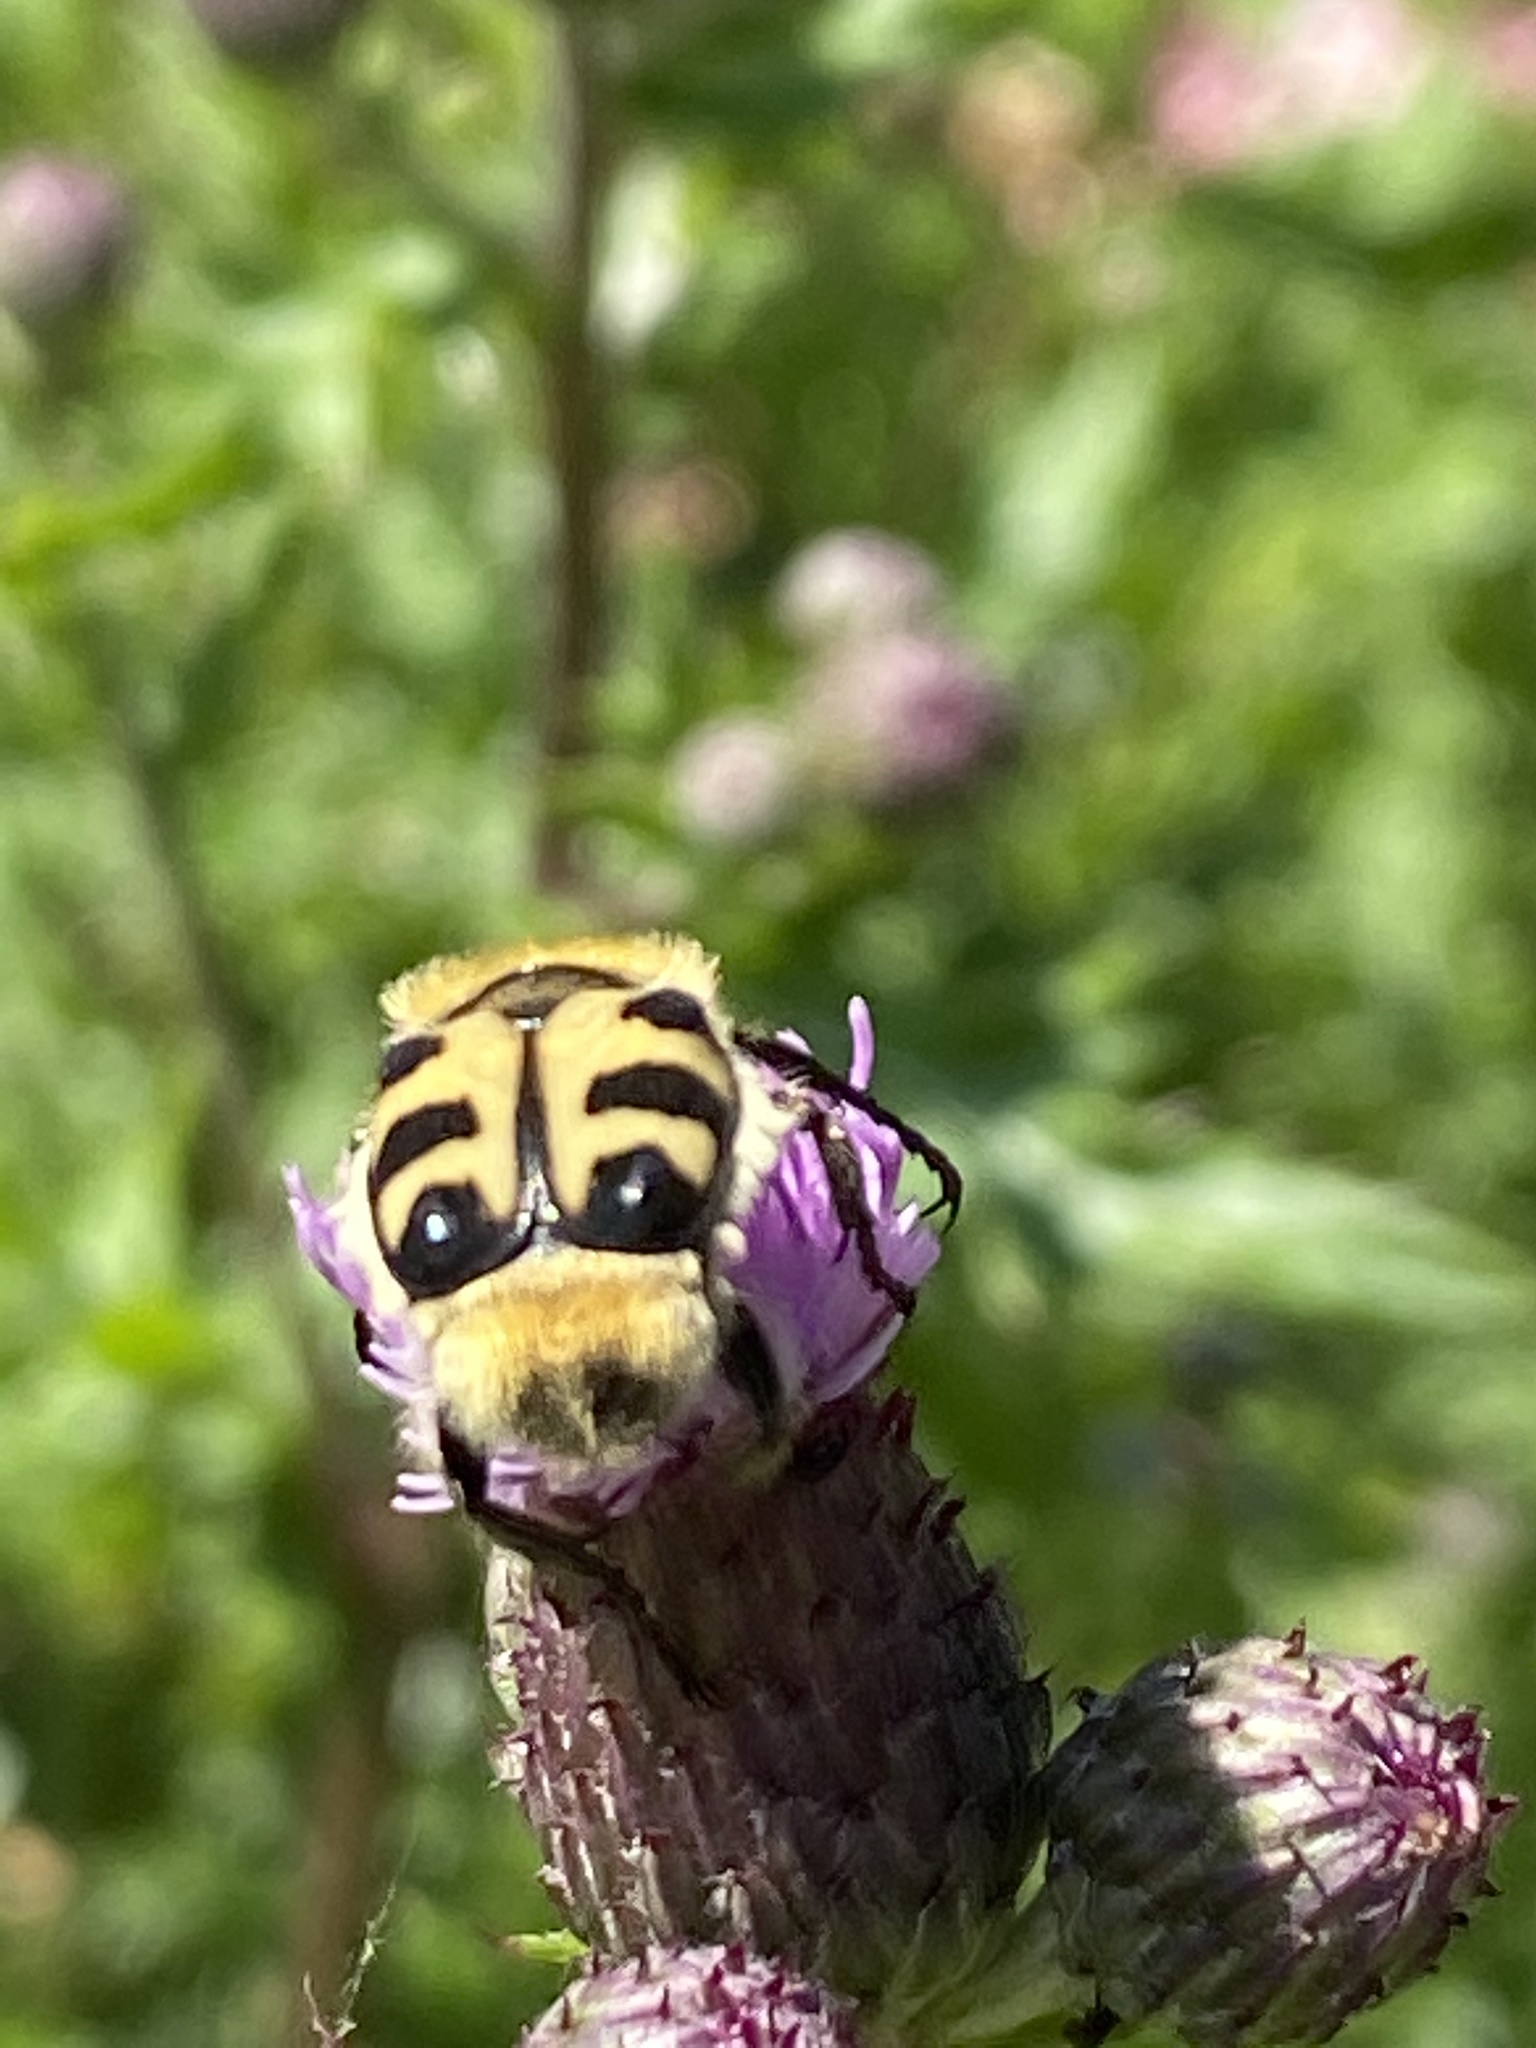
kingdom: Animalia
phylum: Arthropoda
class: Insecta
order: Coleoptera
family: Scarabaeidae
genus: Trichius
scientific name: Trichius gallicus
